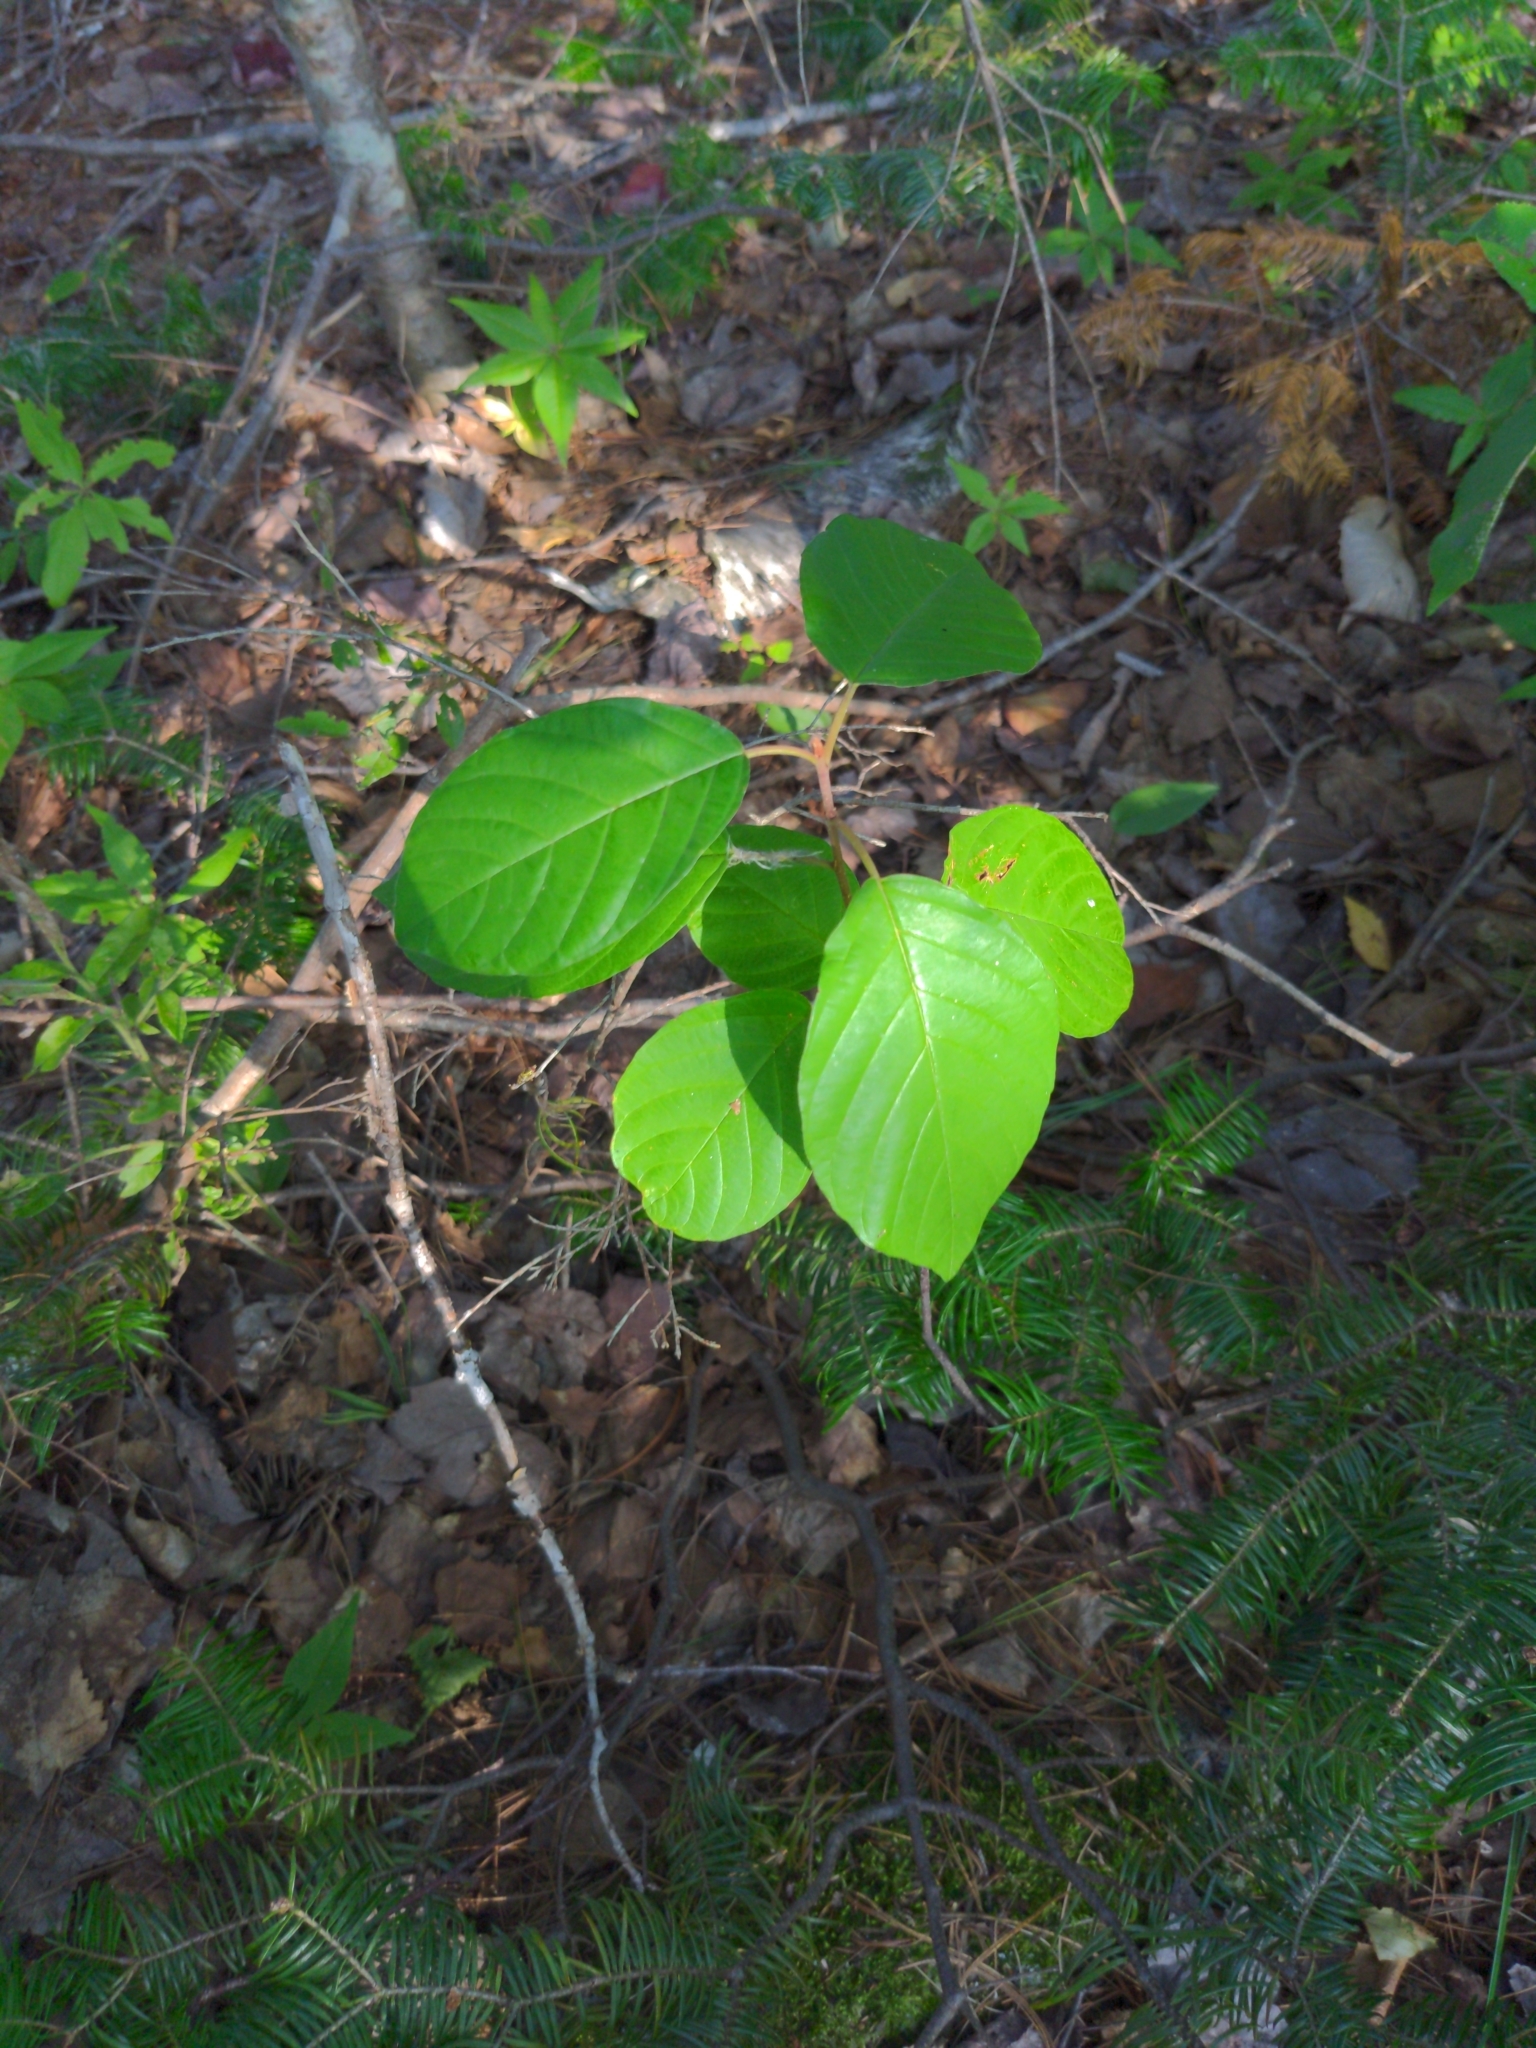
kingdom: Plantae
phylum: Tracheophyta
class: Magnoliopsida
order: Rosales
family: Rhamnaceae
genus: Frangula
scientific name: Frangula alnus
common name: Alder buckthorn
